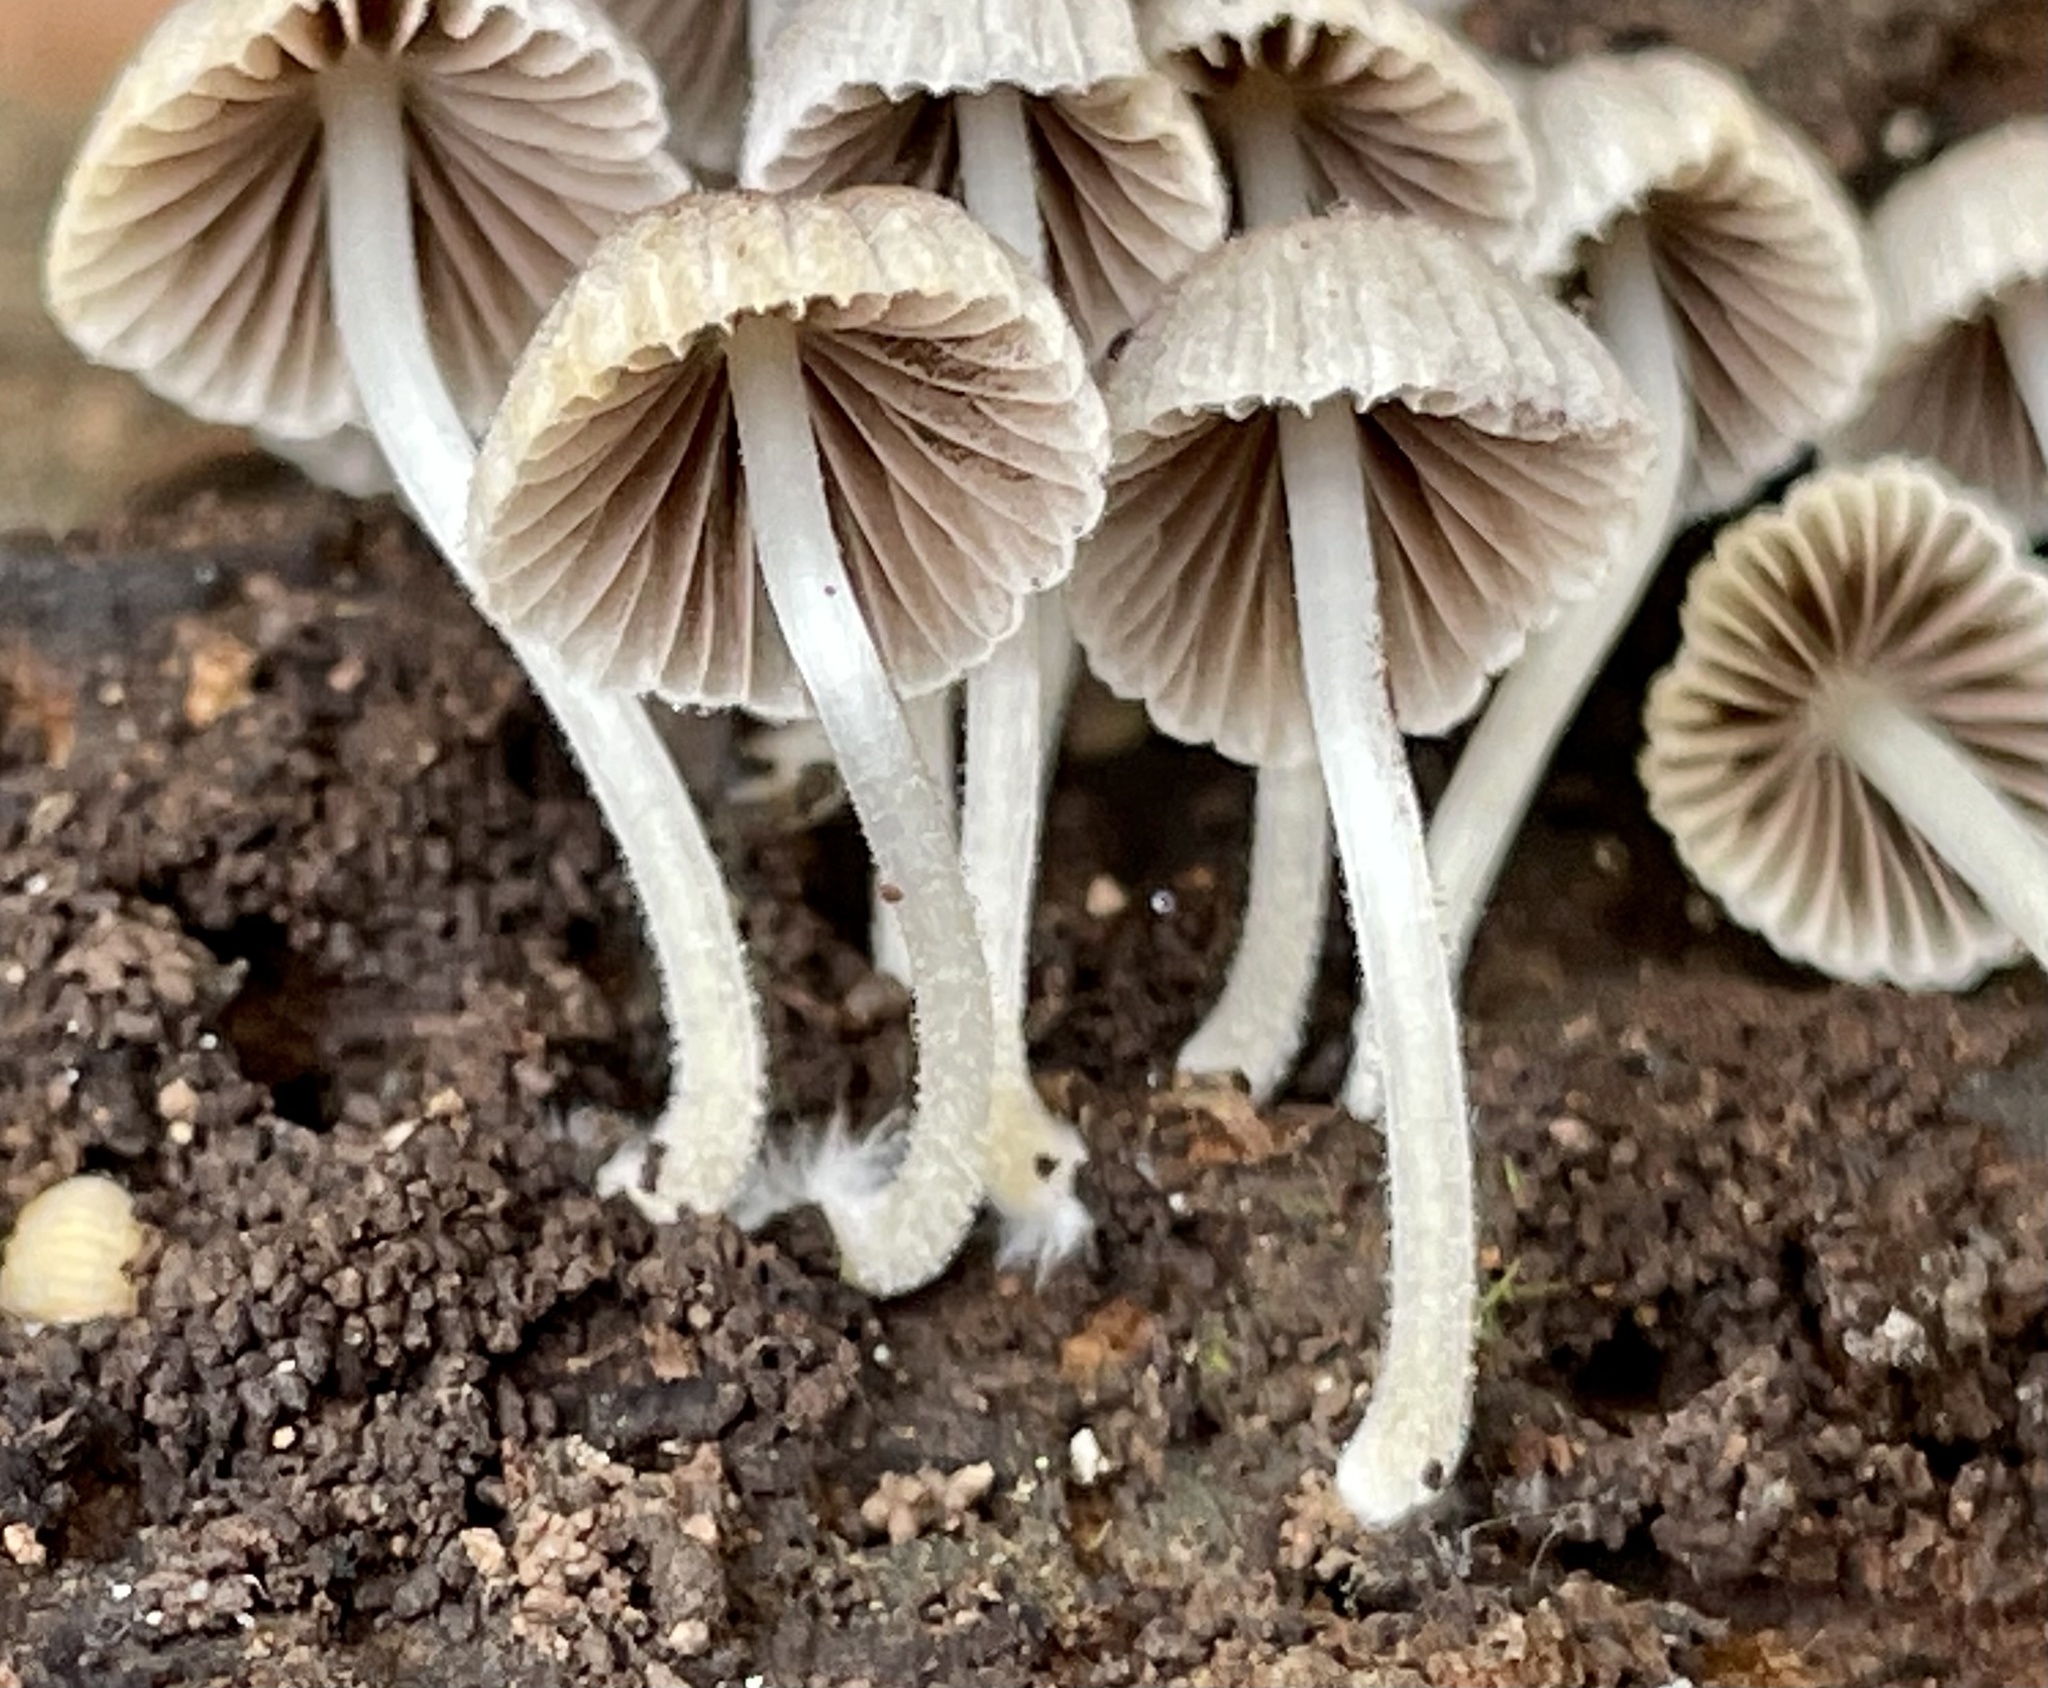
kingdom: Fungi
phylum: Basidiomycota
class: Agaricomycetes
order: Agaricales
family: Psathyrellaceae
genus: Coprinellus
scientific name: Coprinellus disseminatus
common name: Fairies' bonnets
